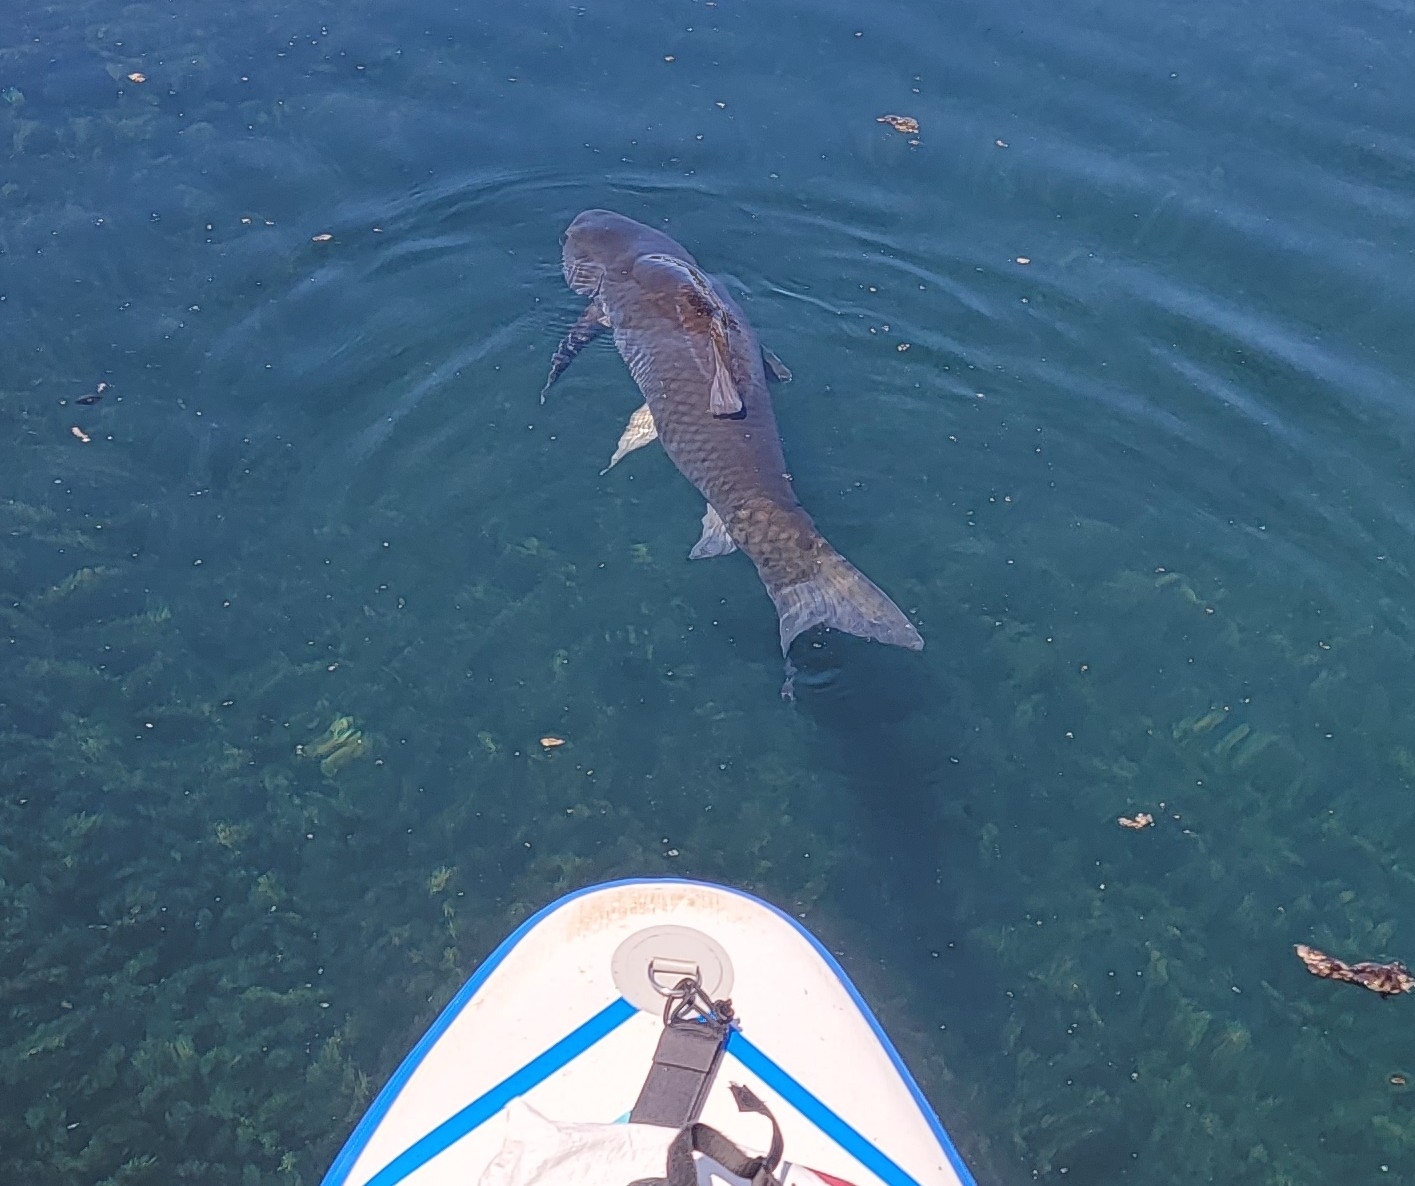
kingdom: Animalia
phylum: Chordata
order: Cypriniformes
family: Cyprinidae
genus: Ctenopharyngodon
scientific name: Ctenopharyngodon idella
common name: Grass carp
